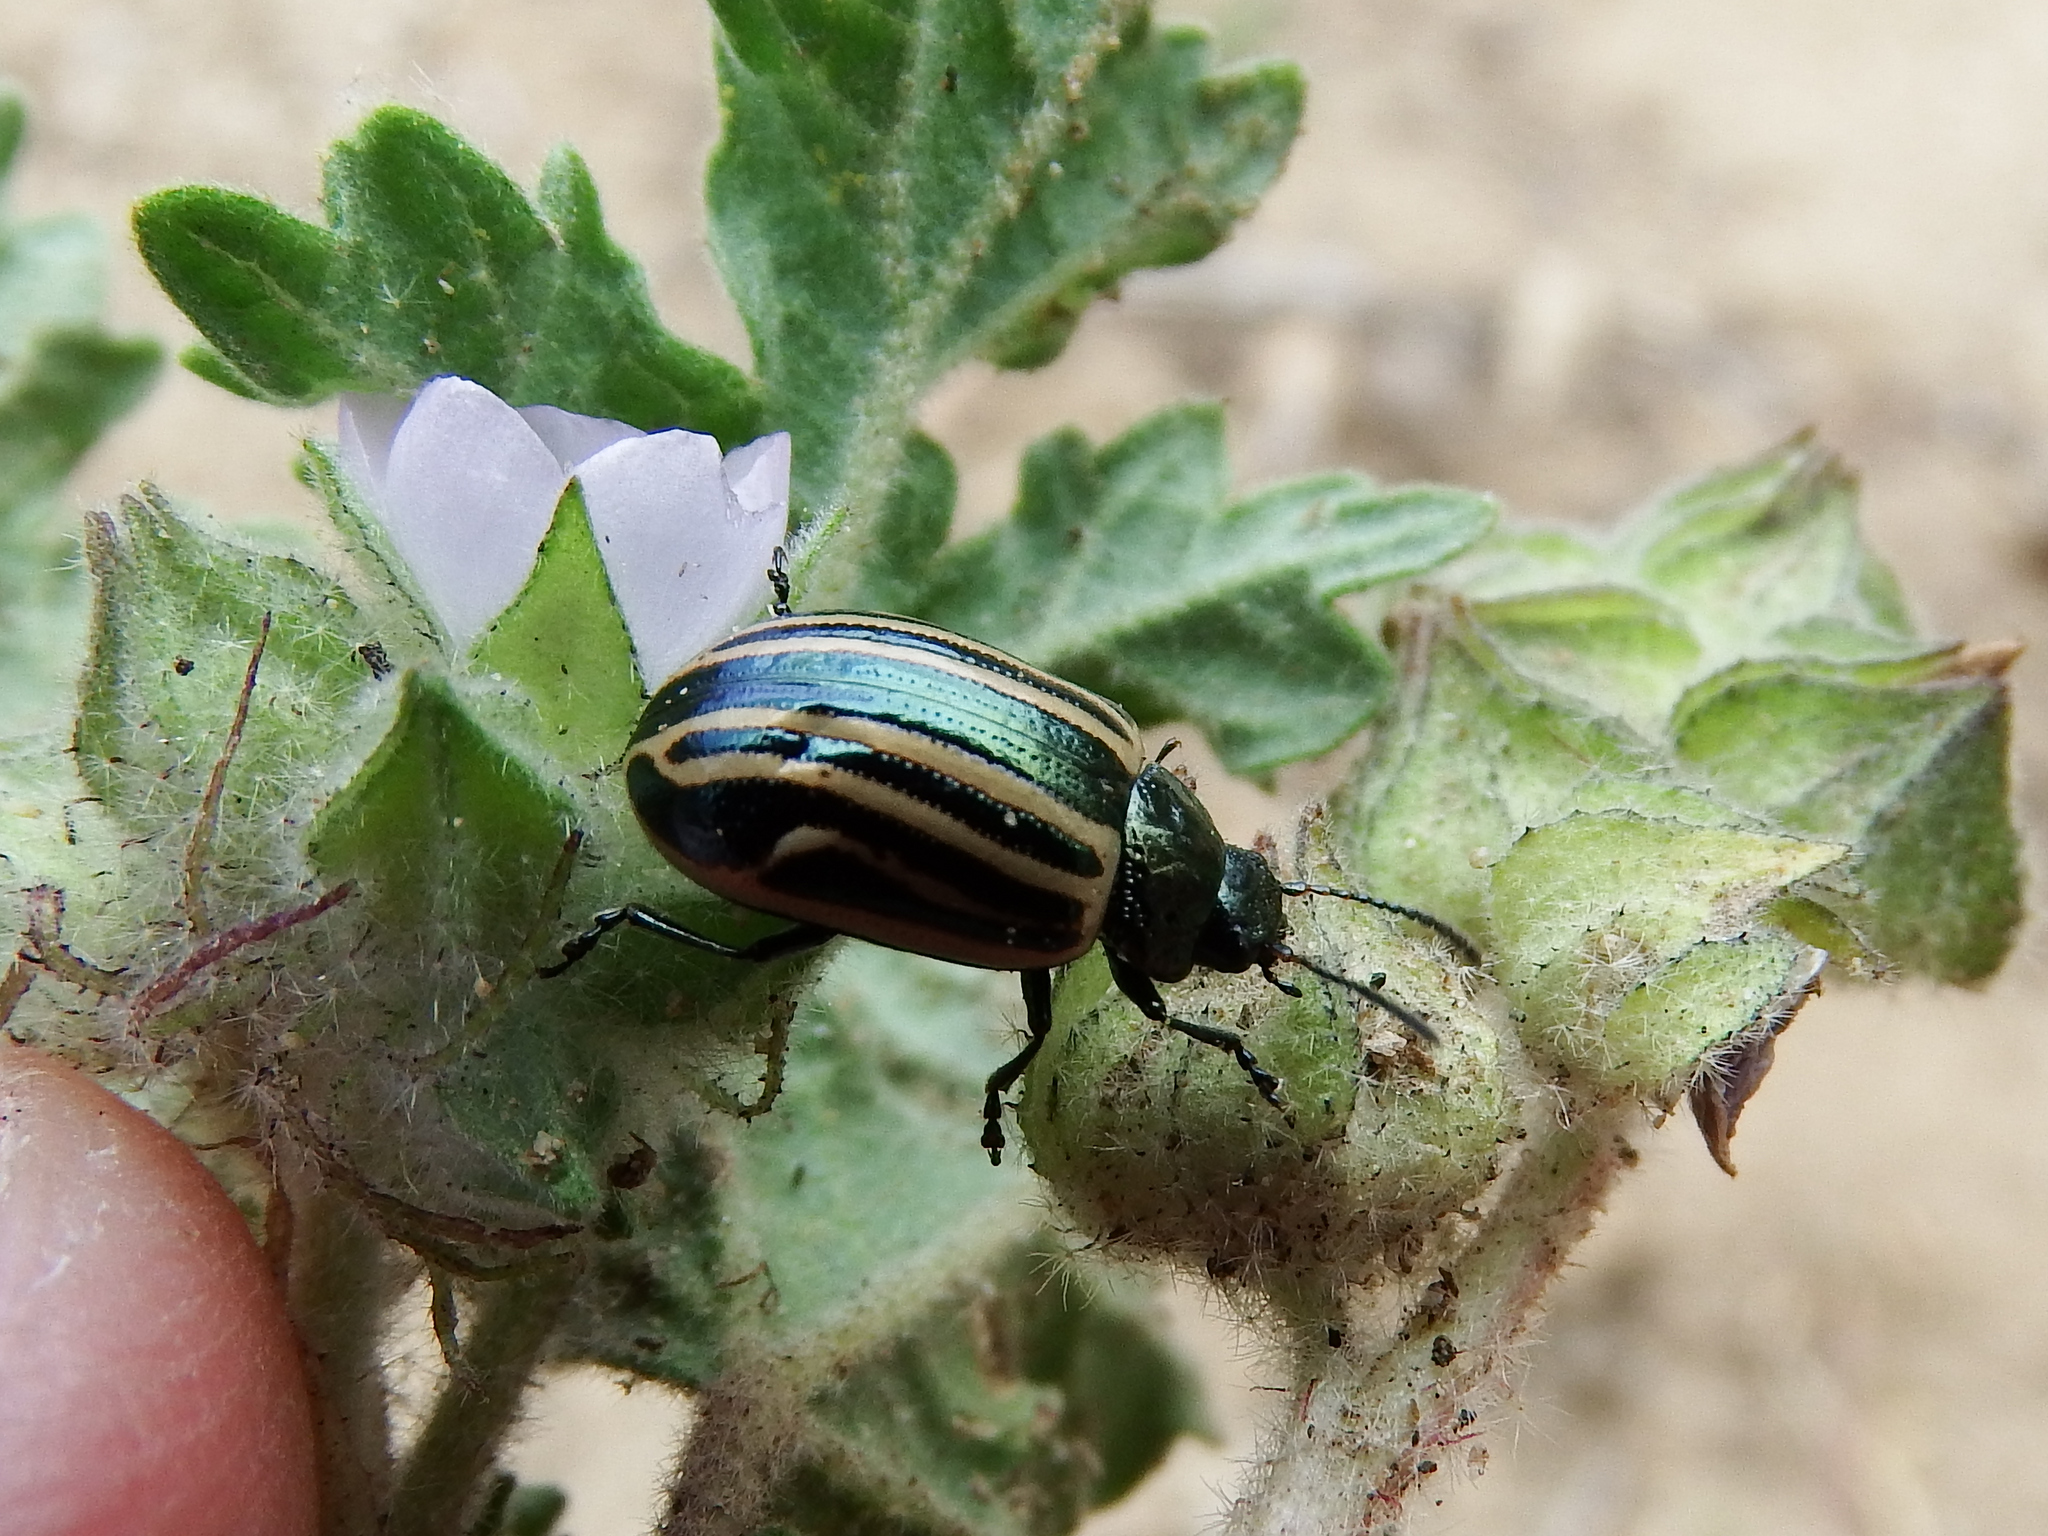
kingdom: Animalia
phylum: Arthropoda
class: Insecta
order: Coleoptera
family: Chrysomelidae
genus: Calligrapha
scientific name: Calligrapha
